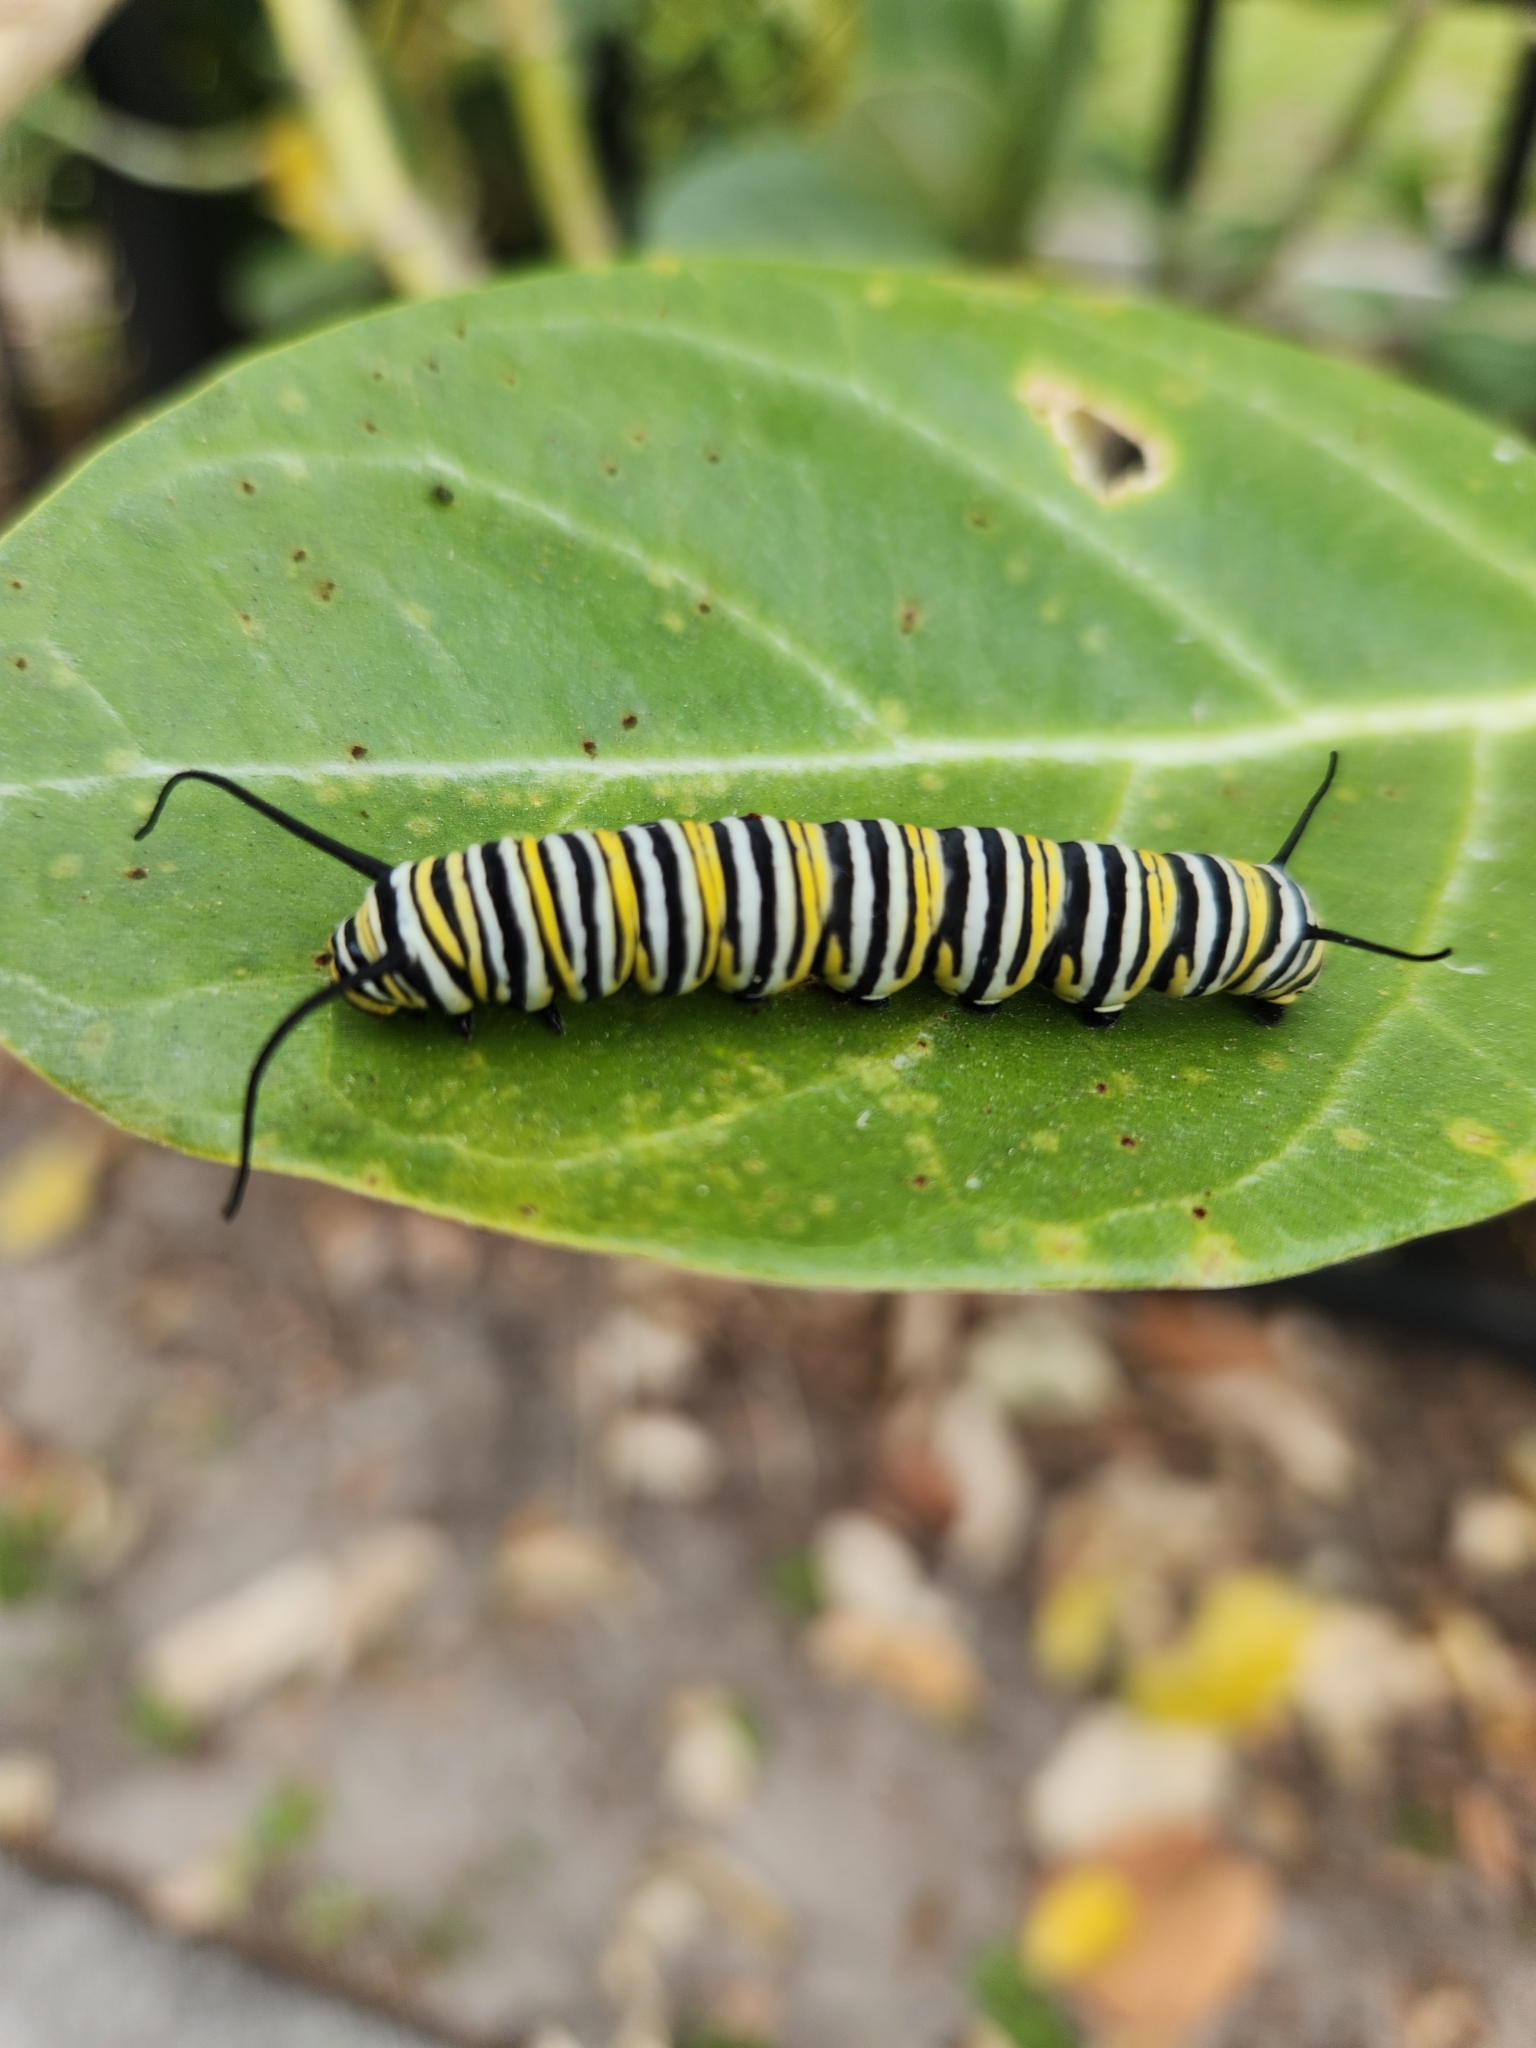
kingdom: Animalia
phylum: Arthropoda
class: Insecta
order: Lepidoptera
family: Nymphalidae
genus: Danaus
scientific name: Danaus plexippus
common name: Monarch
